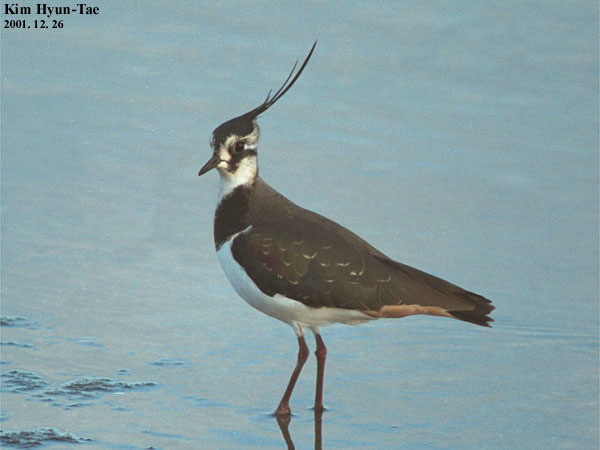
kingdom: Animalia
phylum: Chordata
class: Aves
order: Charadriiformes
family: Charadriidae
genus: Vanellus
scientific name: Vanellus vanellus
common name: Northern lapwing
